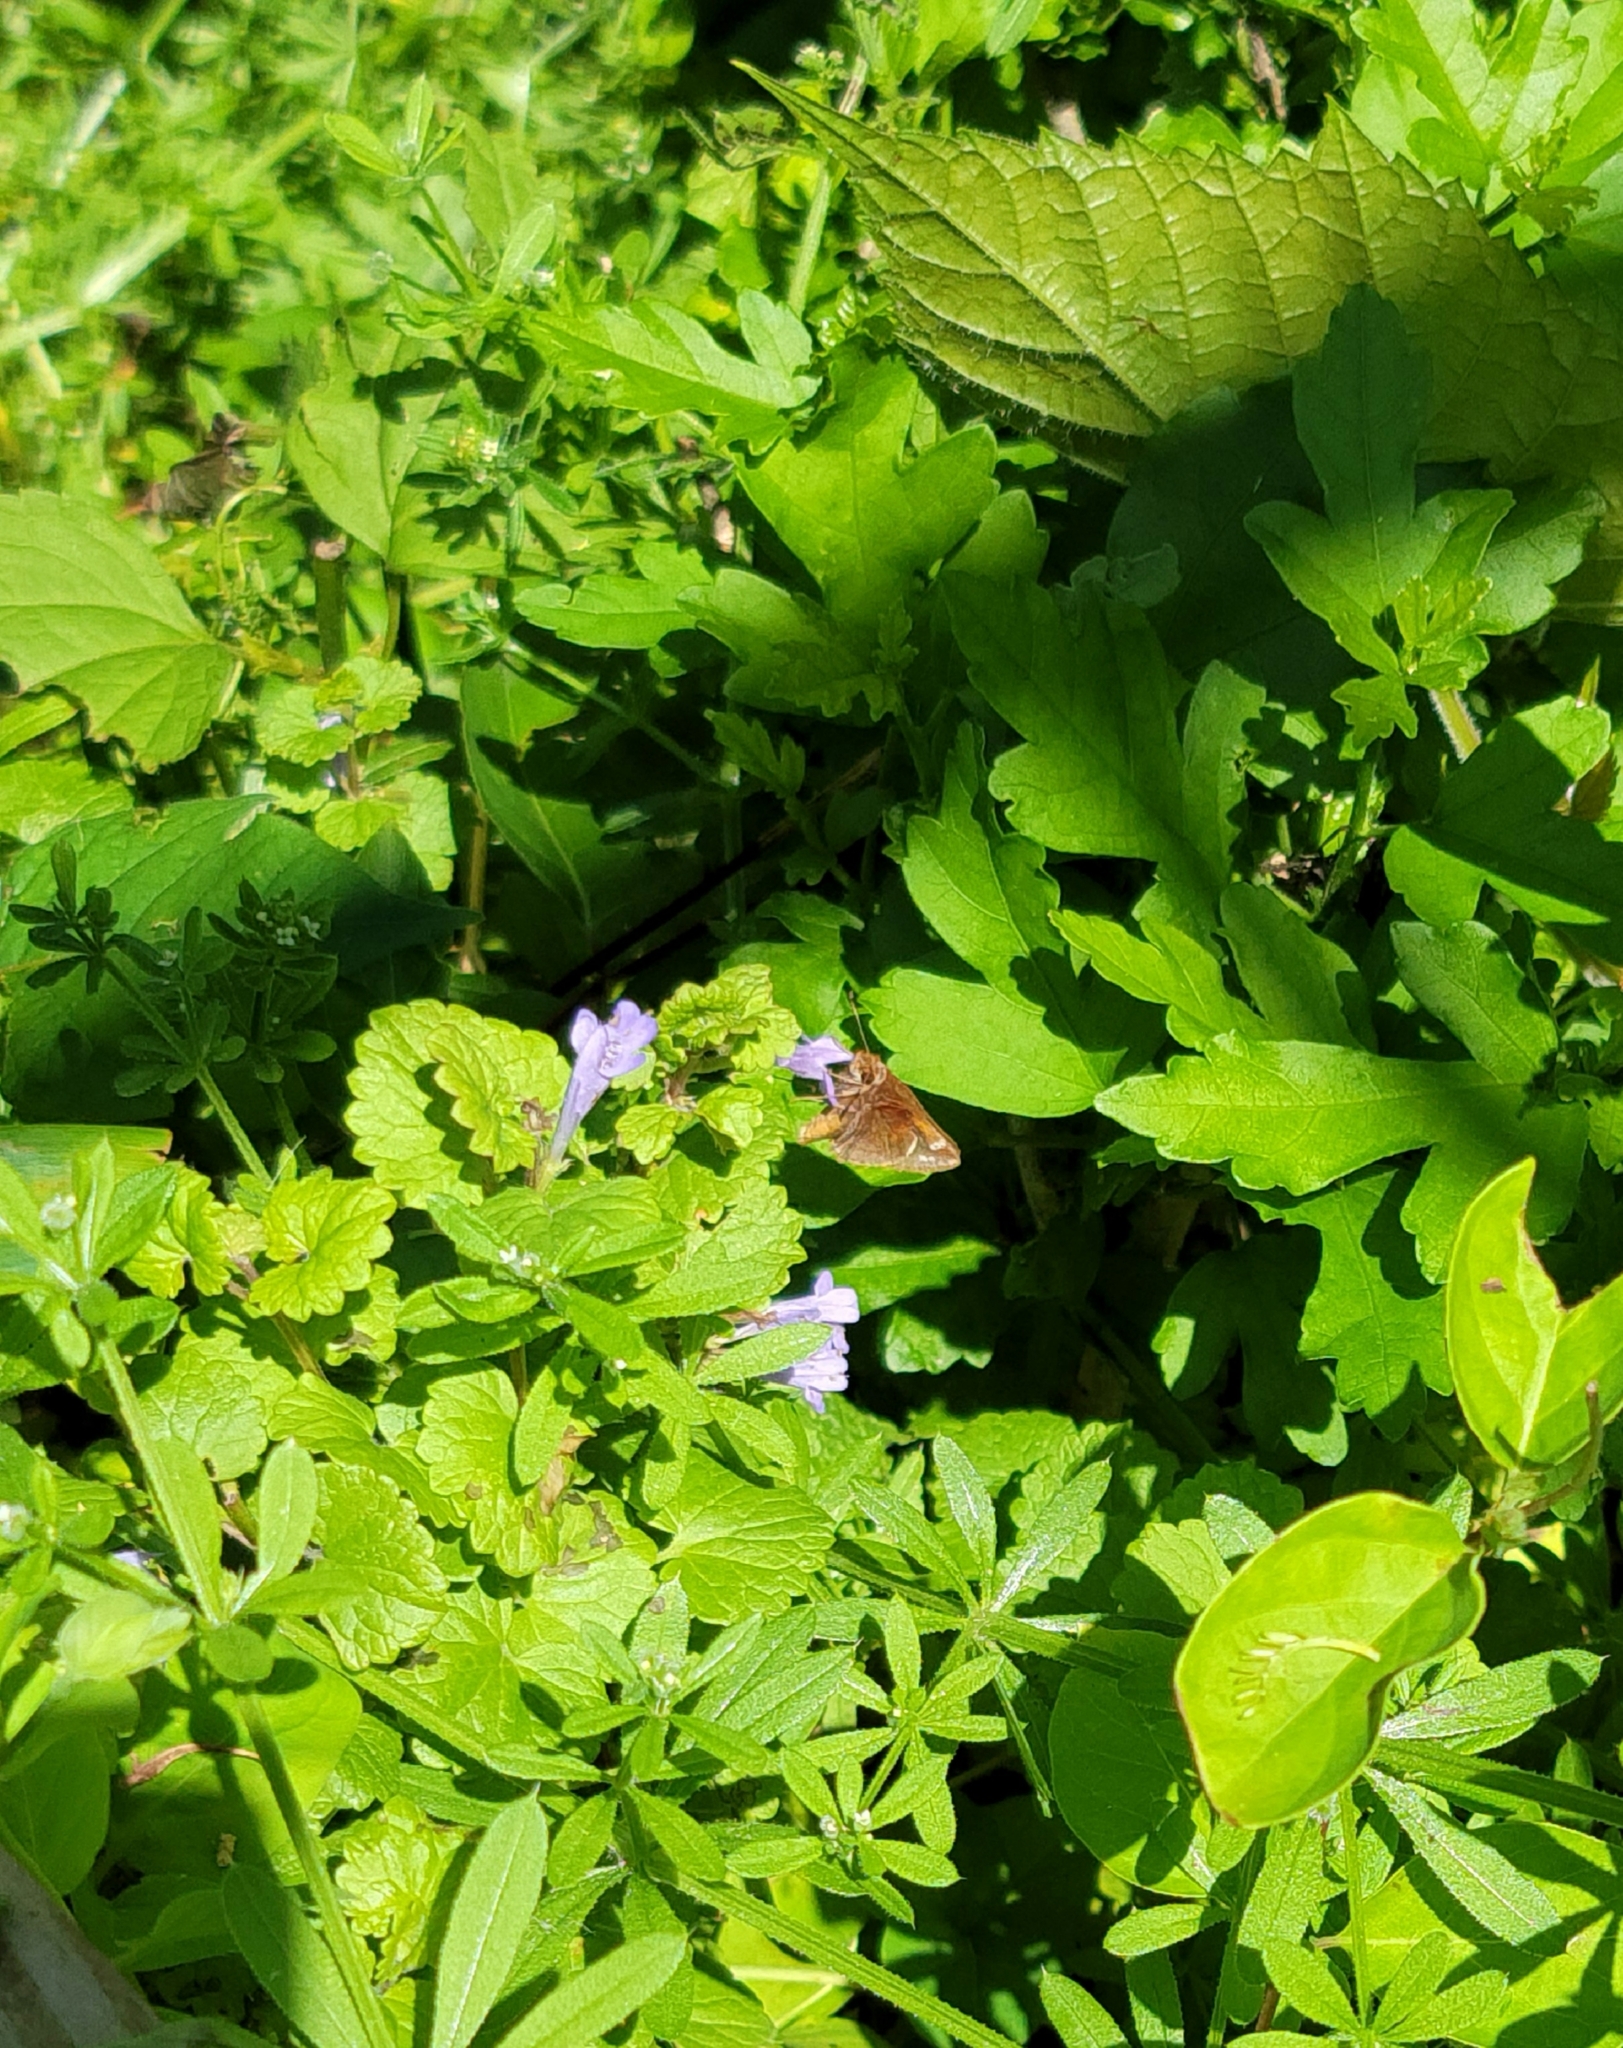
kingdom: Animalia
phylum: Arthropoda
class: Insecta
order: Lepidoptera
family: Hesperiidae
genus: Lon
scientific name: Lon zabulon
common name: Zabulon skipper
